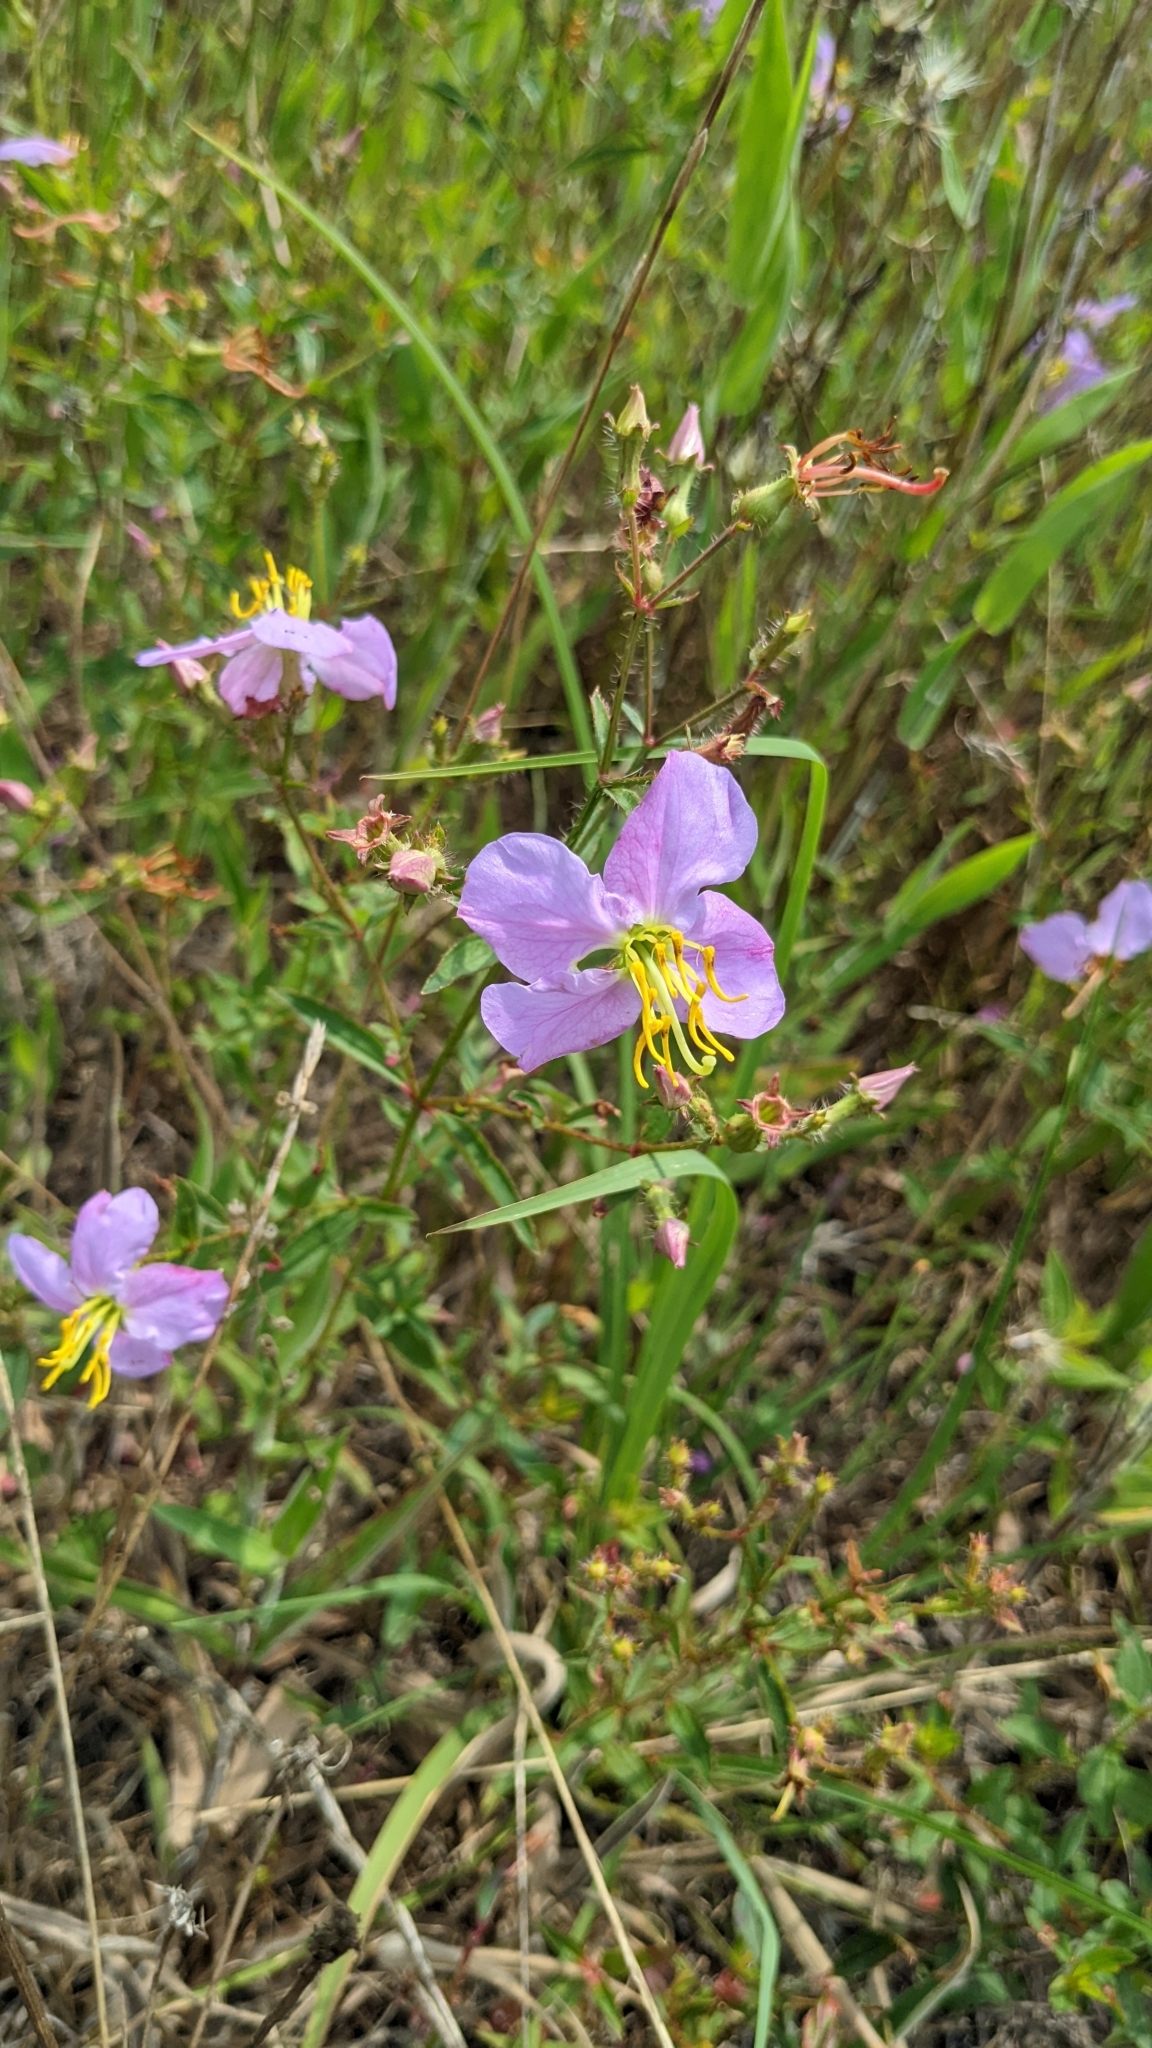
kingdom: Plantae
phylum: Tracheophyta
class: Magnoliopsida
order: Myrtales
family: Melastomataceae
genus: Rhexia
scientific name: Rhexia mariana
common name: Dull meadow-pitcher
